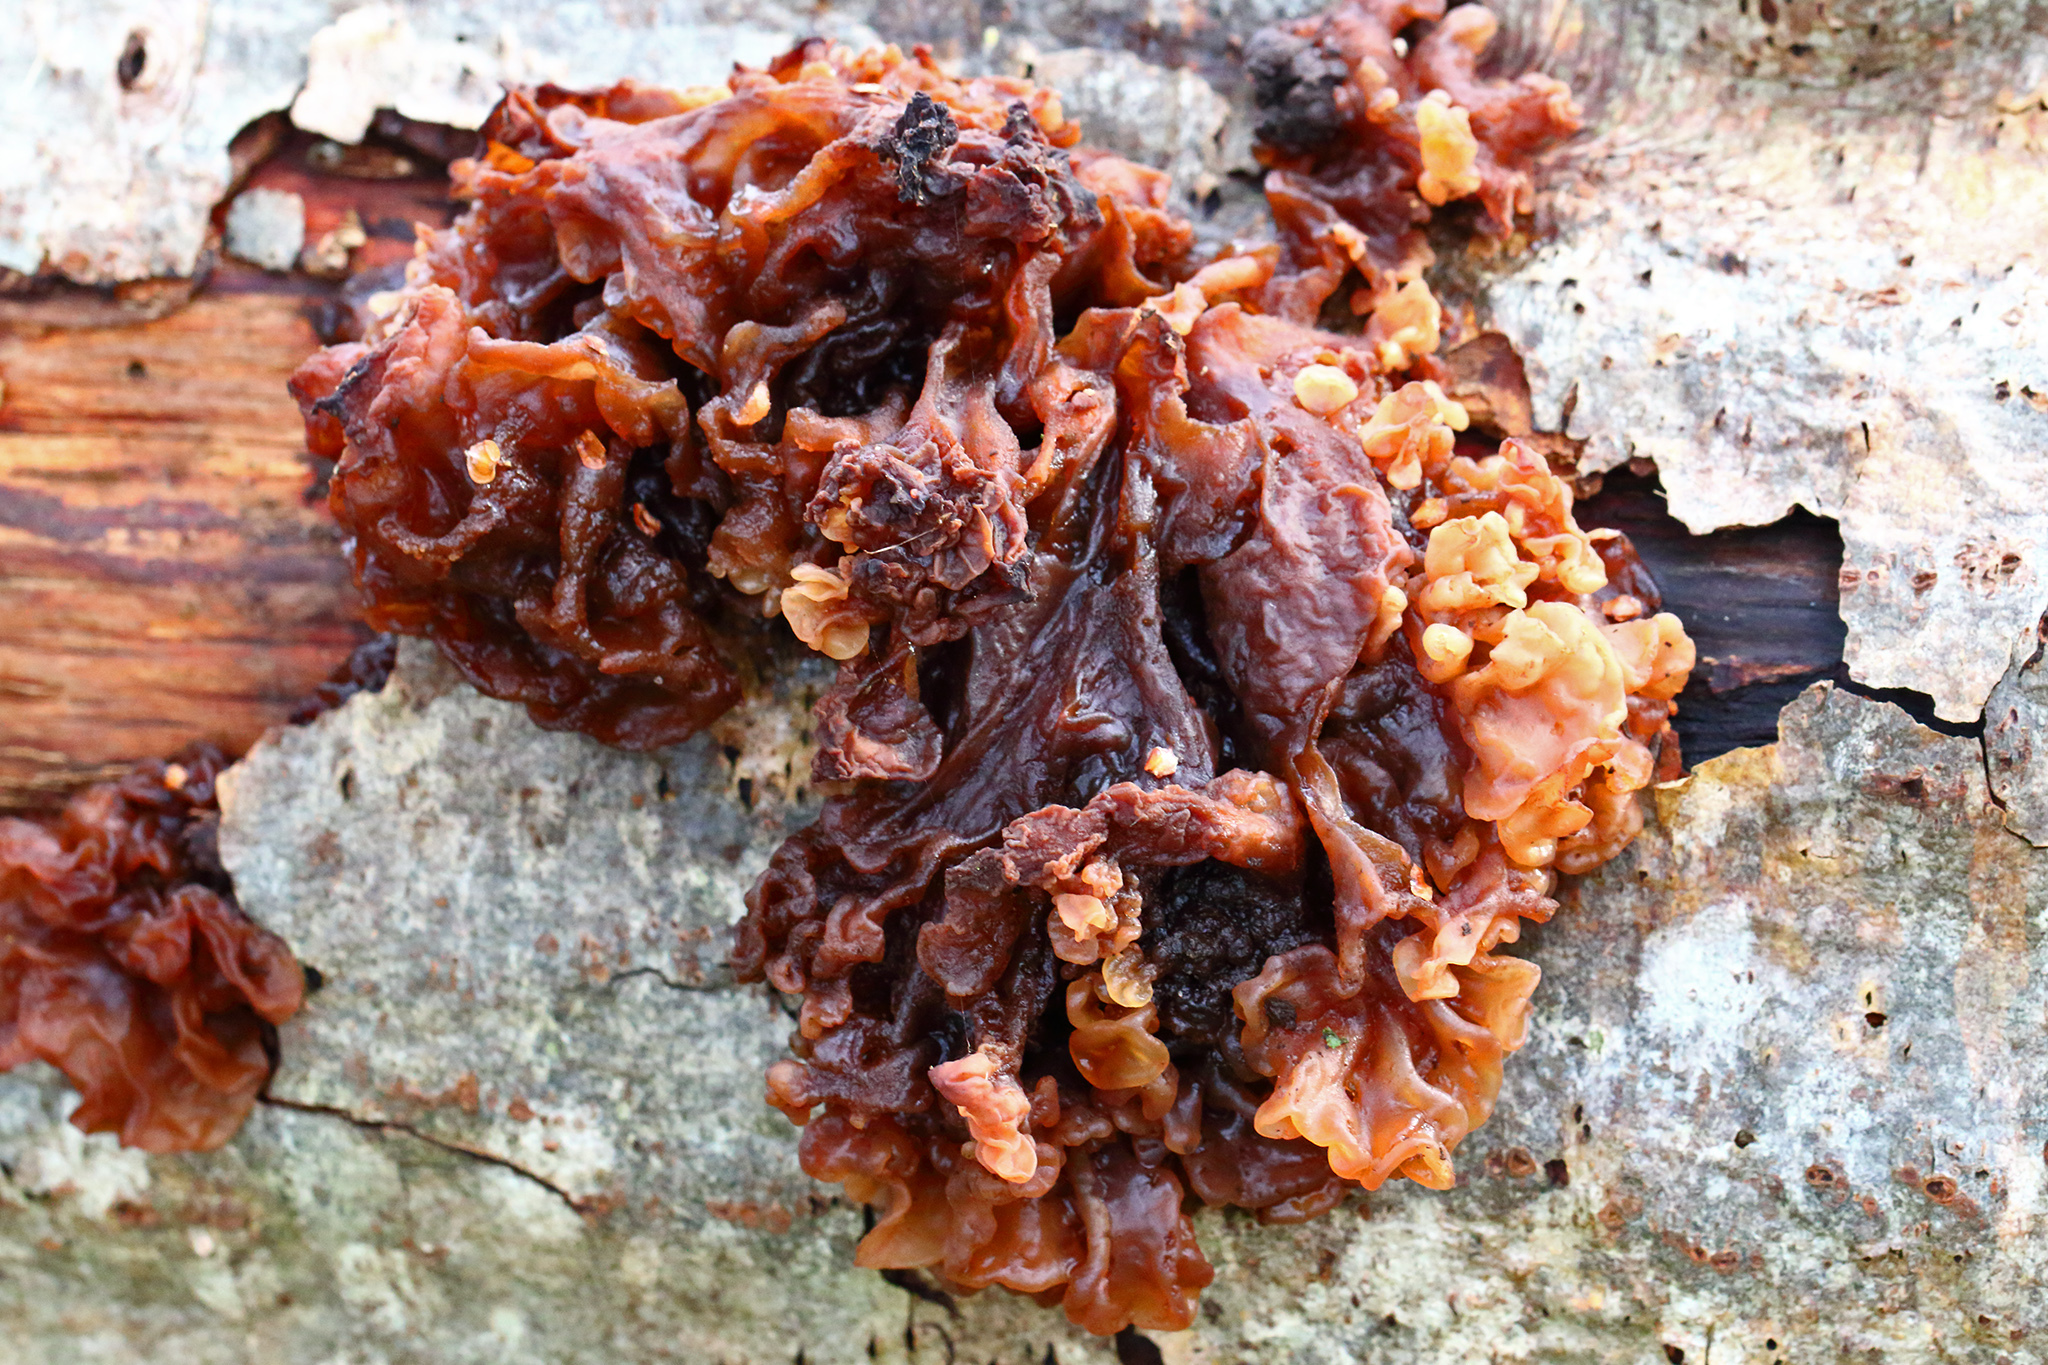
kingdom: Fungi
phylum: Basidiomycota
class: Tremellomycetes
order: Tremellales
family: Tremellaceae
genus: Phaeotremella
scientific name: Phaeotremella frondosa
